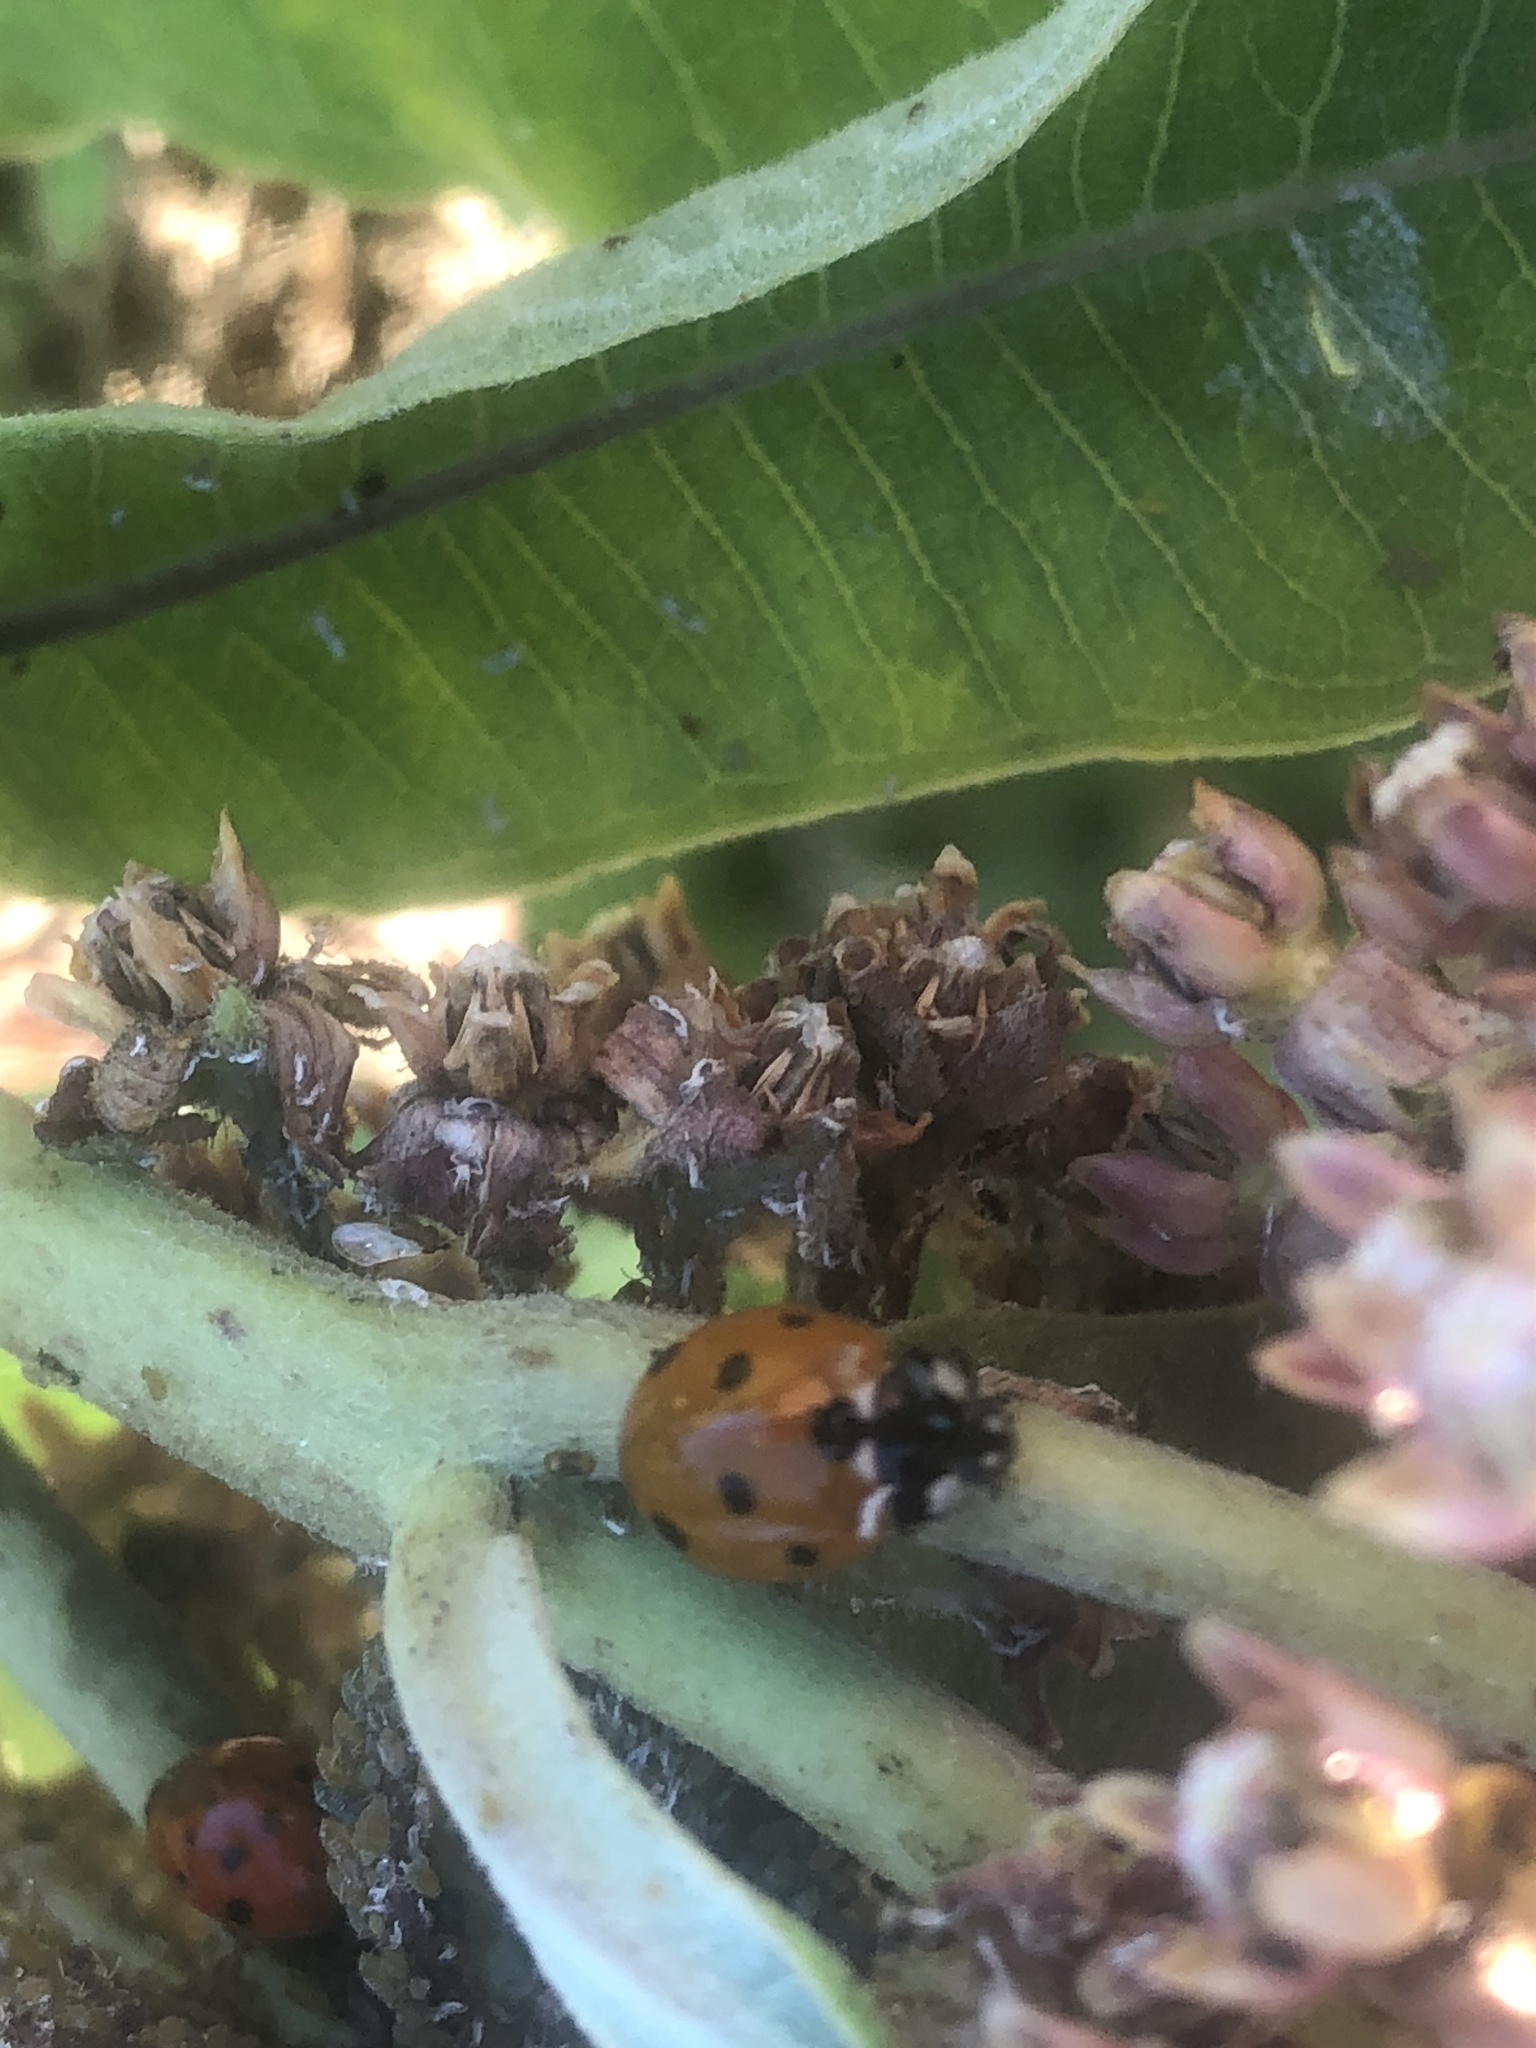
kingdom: Animalia
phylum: Arthropoda
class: Insecta
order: Coleoptera
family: Coccinellidae
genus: Coccinella
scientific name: Coccinella septempunctata
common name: Sevenspotted lady beetle
